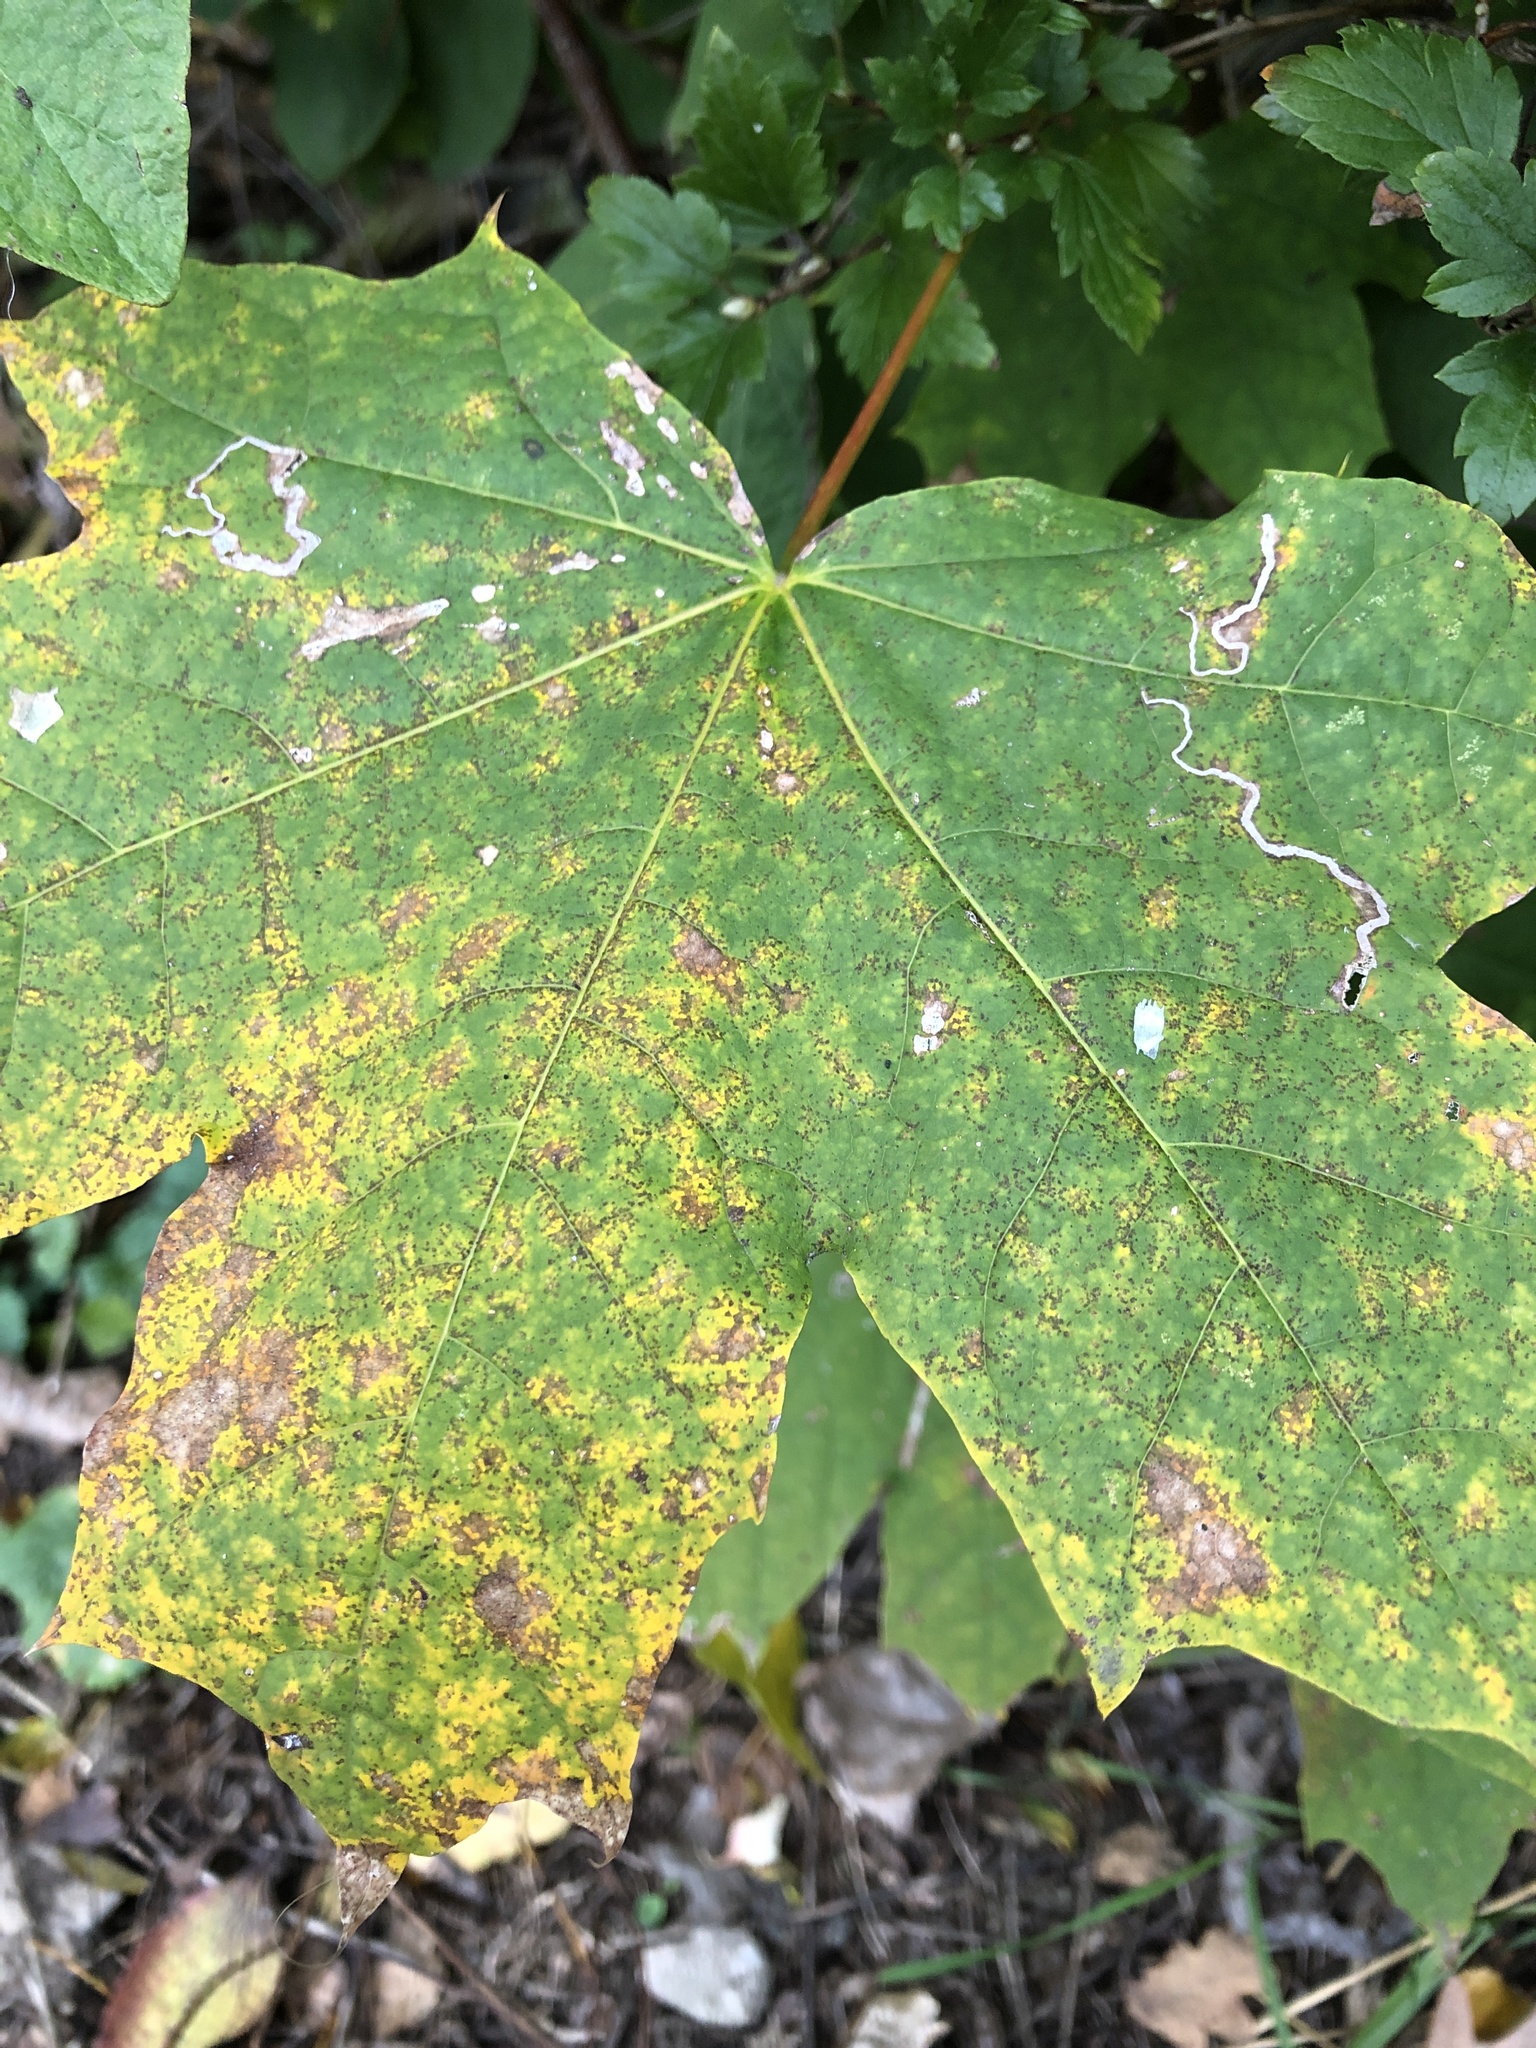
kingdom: Animalia
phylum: Arthropoda
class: Insecta
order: Lepidoptera
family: Nepticulidae
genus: Stigmella
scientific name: Stigmella aceris
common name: Scarce maple pigmy
